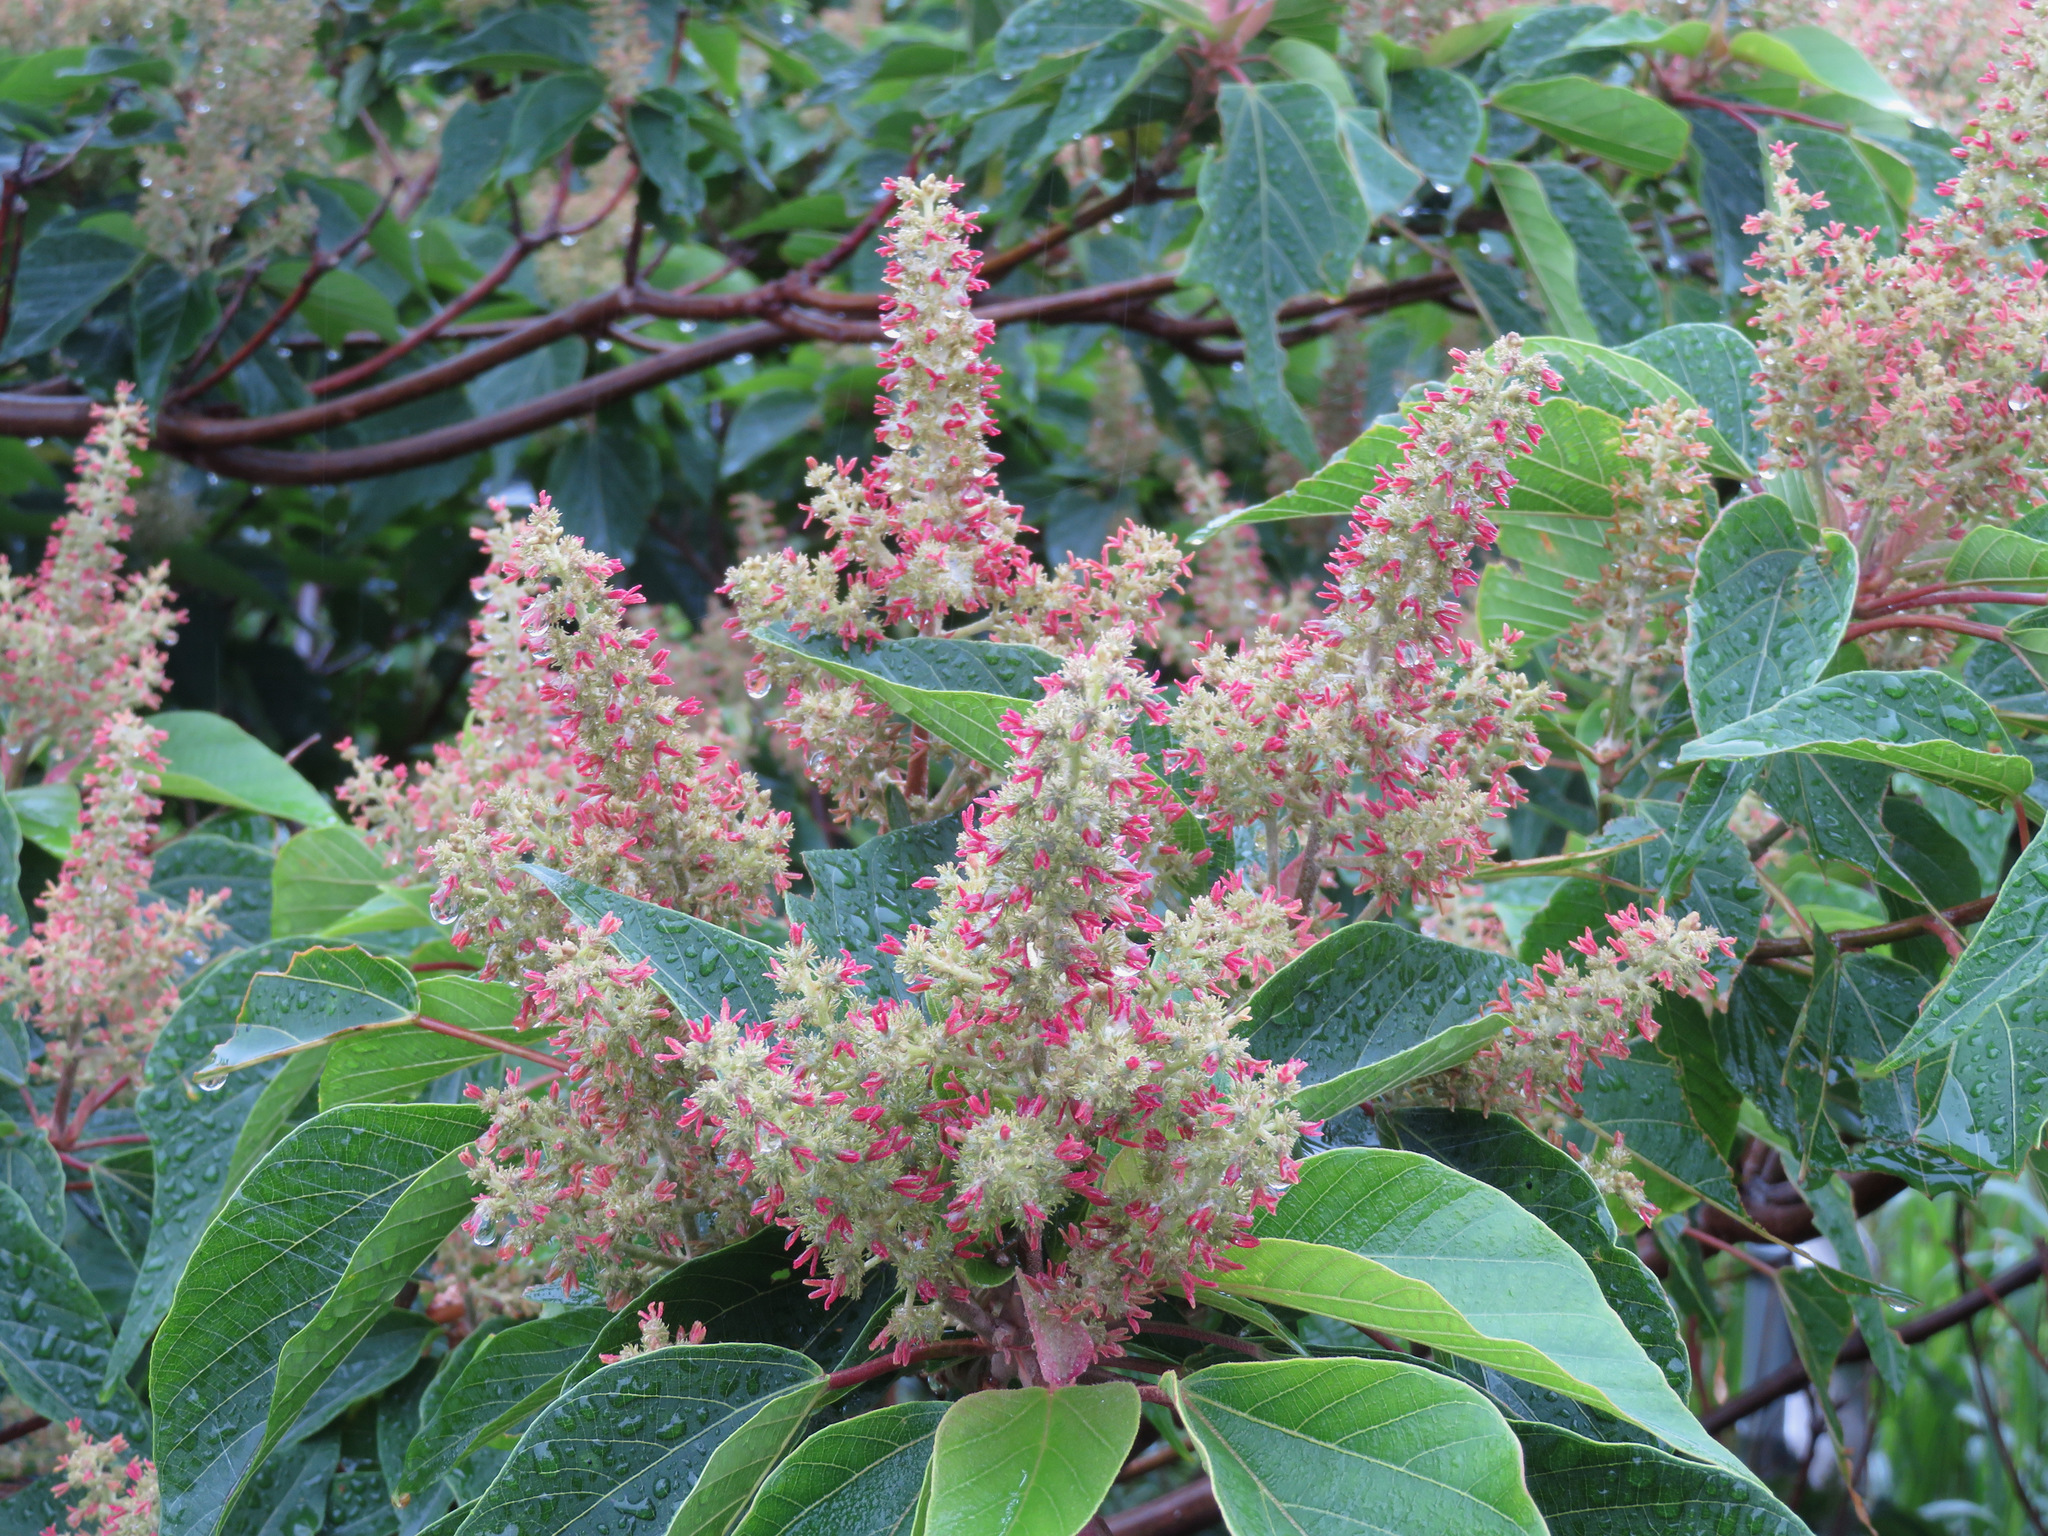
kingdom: Plantae
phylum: Tracheophyta
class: Magnoliopsida
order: Malpighiales
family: Euphorbiaceae
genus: Mallotus
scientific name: Mallotus japonicus
